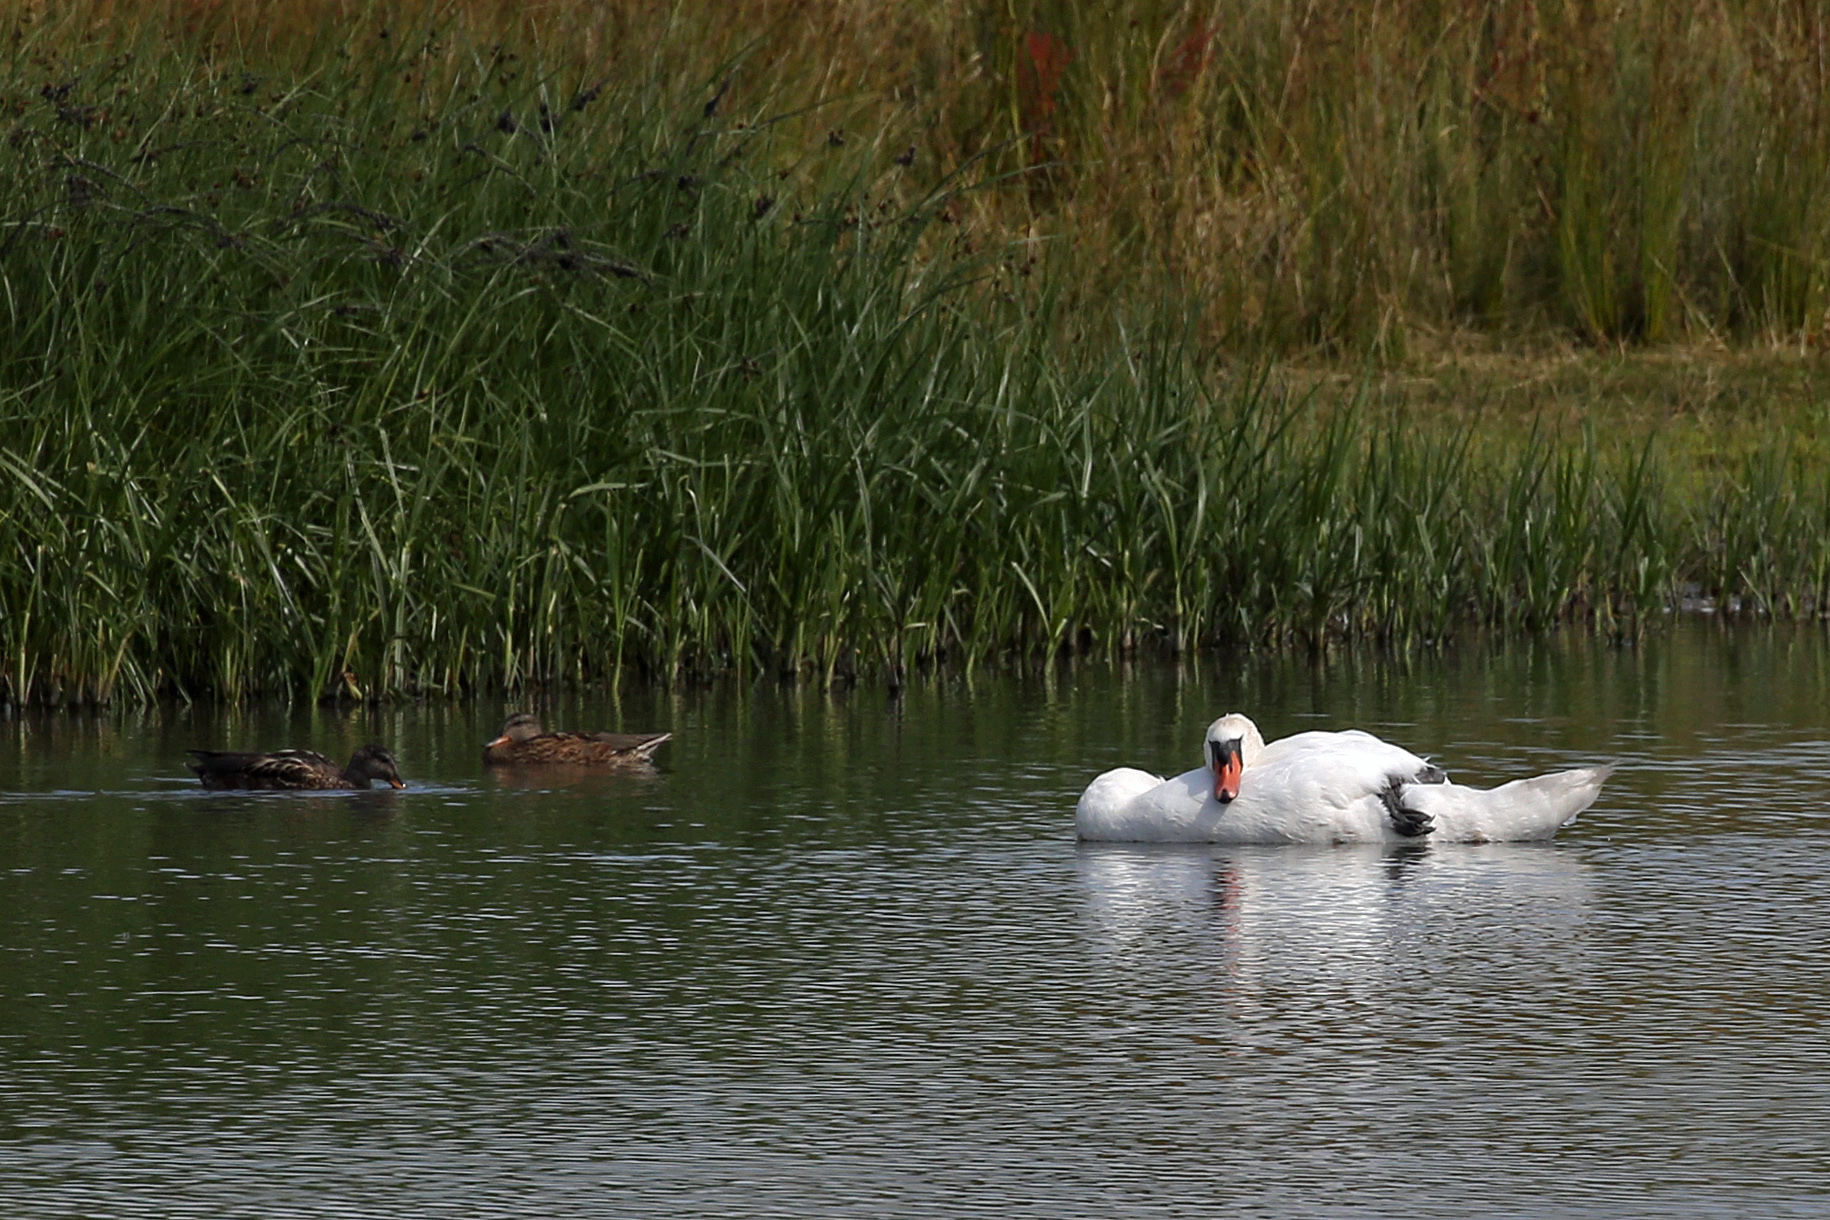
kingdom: Animalia
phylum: Chordata
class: Aves
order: Anseriformes
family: Anatidae
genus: Cygnus
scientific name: Cygnus olor
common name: Mute swan
